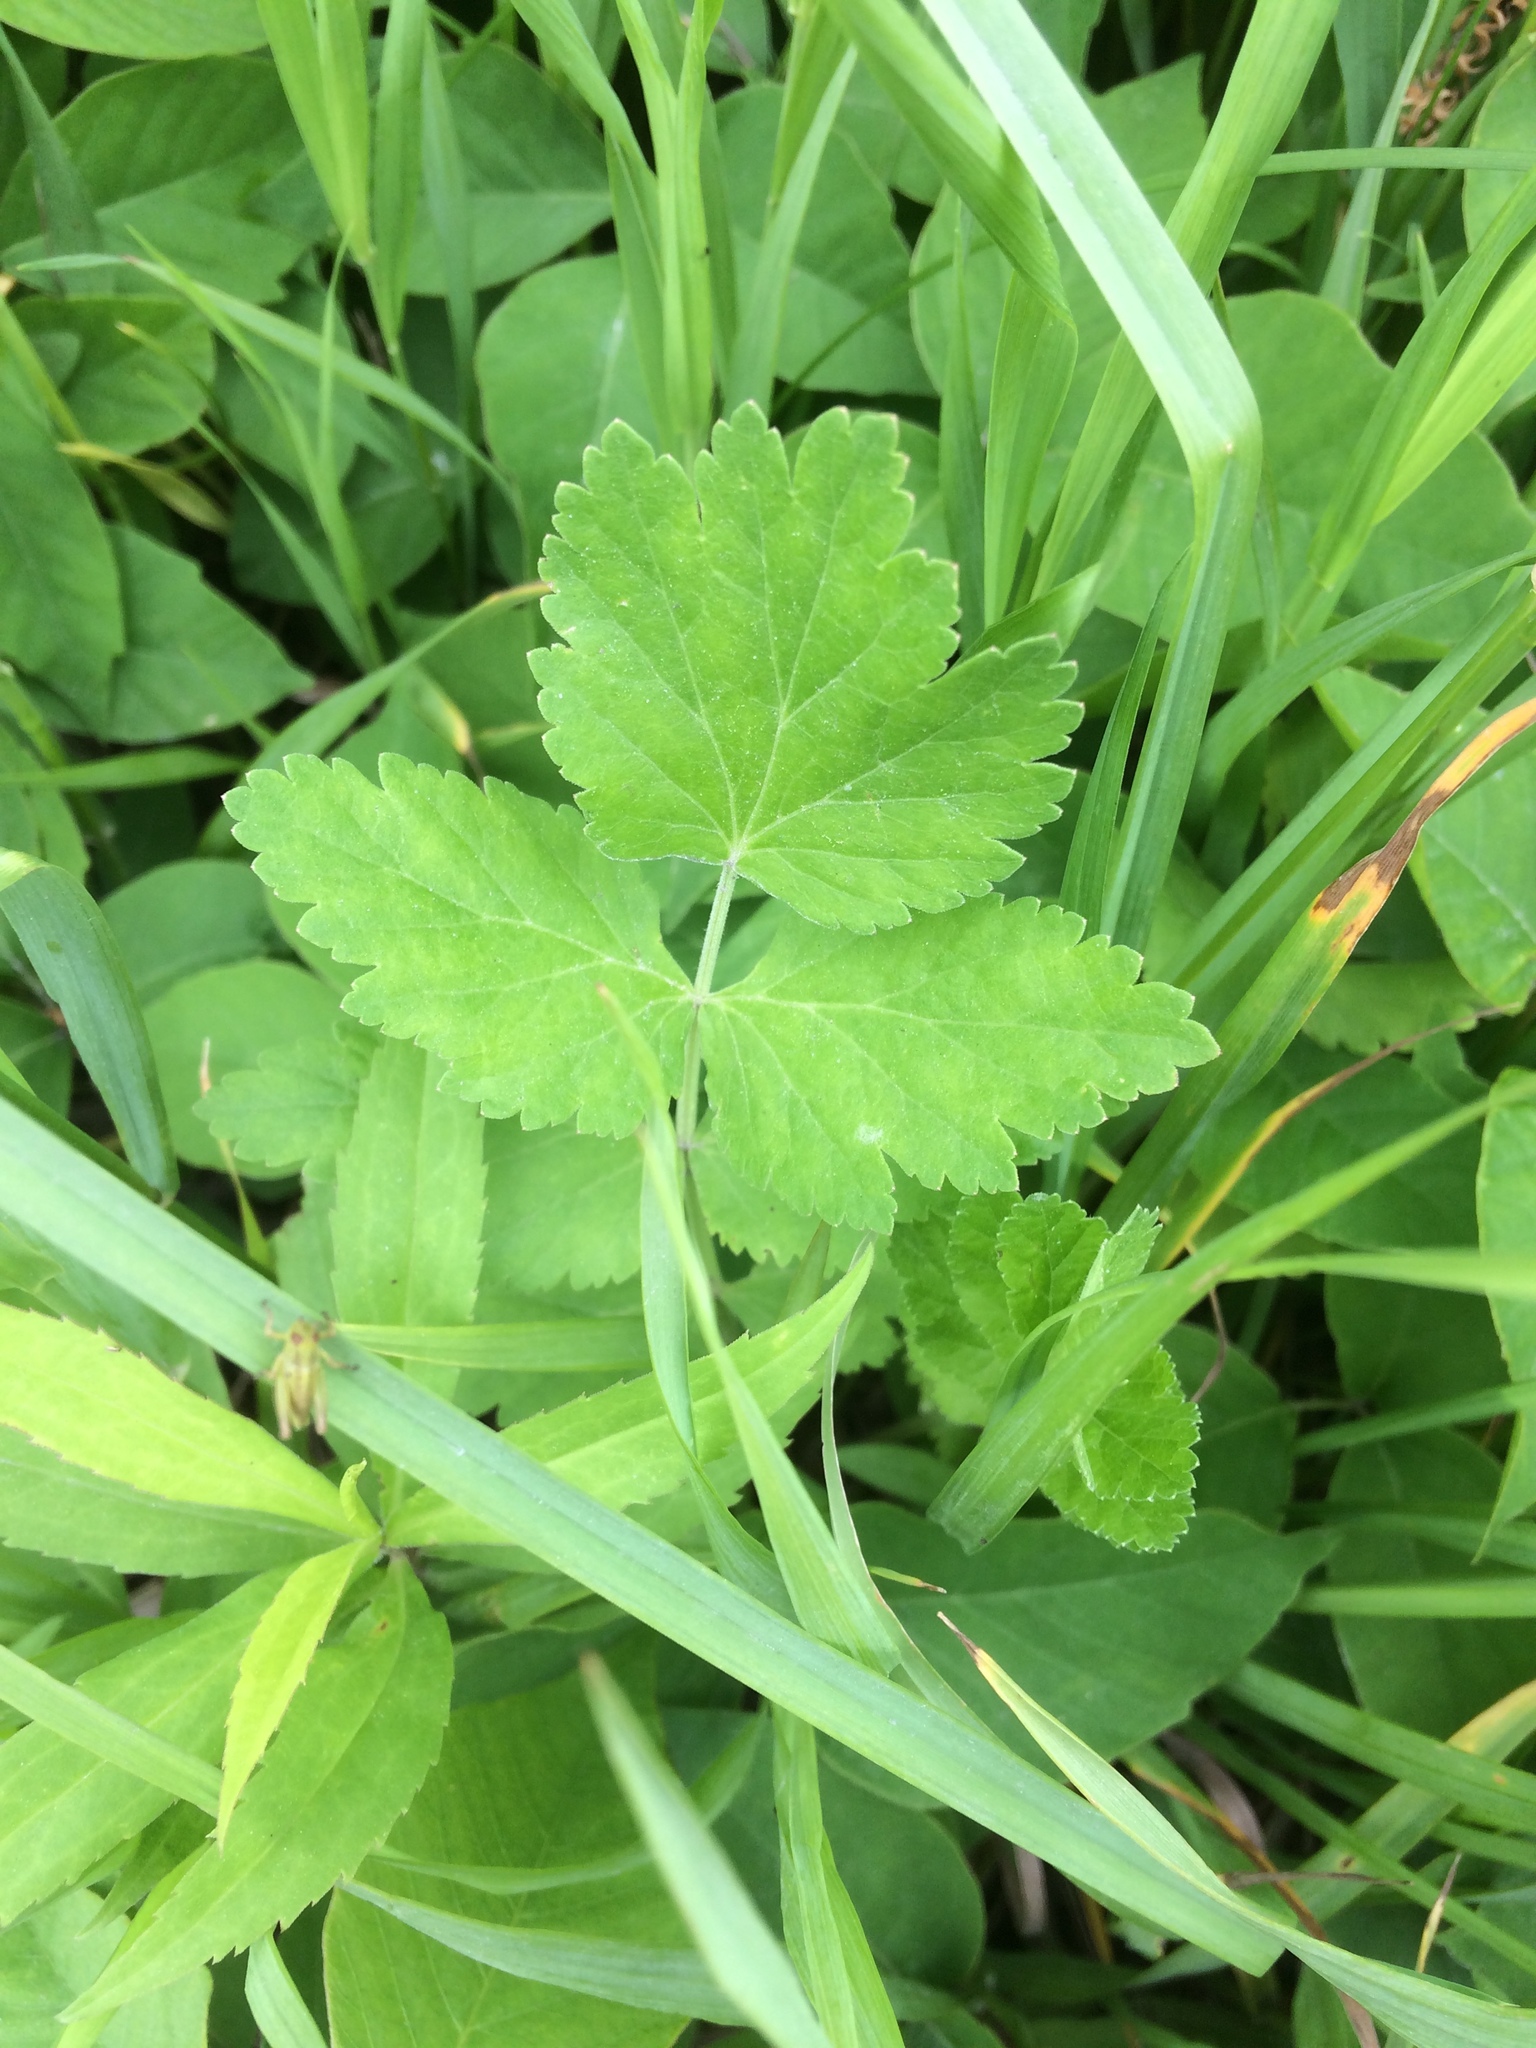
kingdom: Plantae
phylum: Tracheophyta
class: Magnoliopsida
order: Apiales
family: Apiaceae
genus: Pastinaca
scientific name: Pastinaca sativa
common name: Wild parsnip
